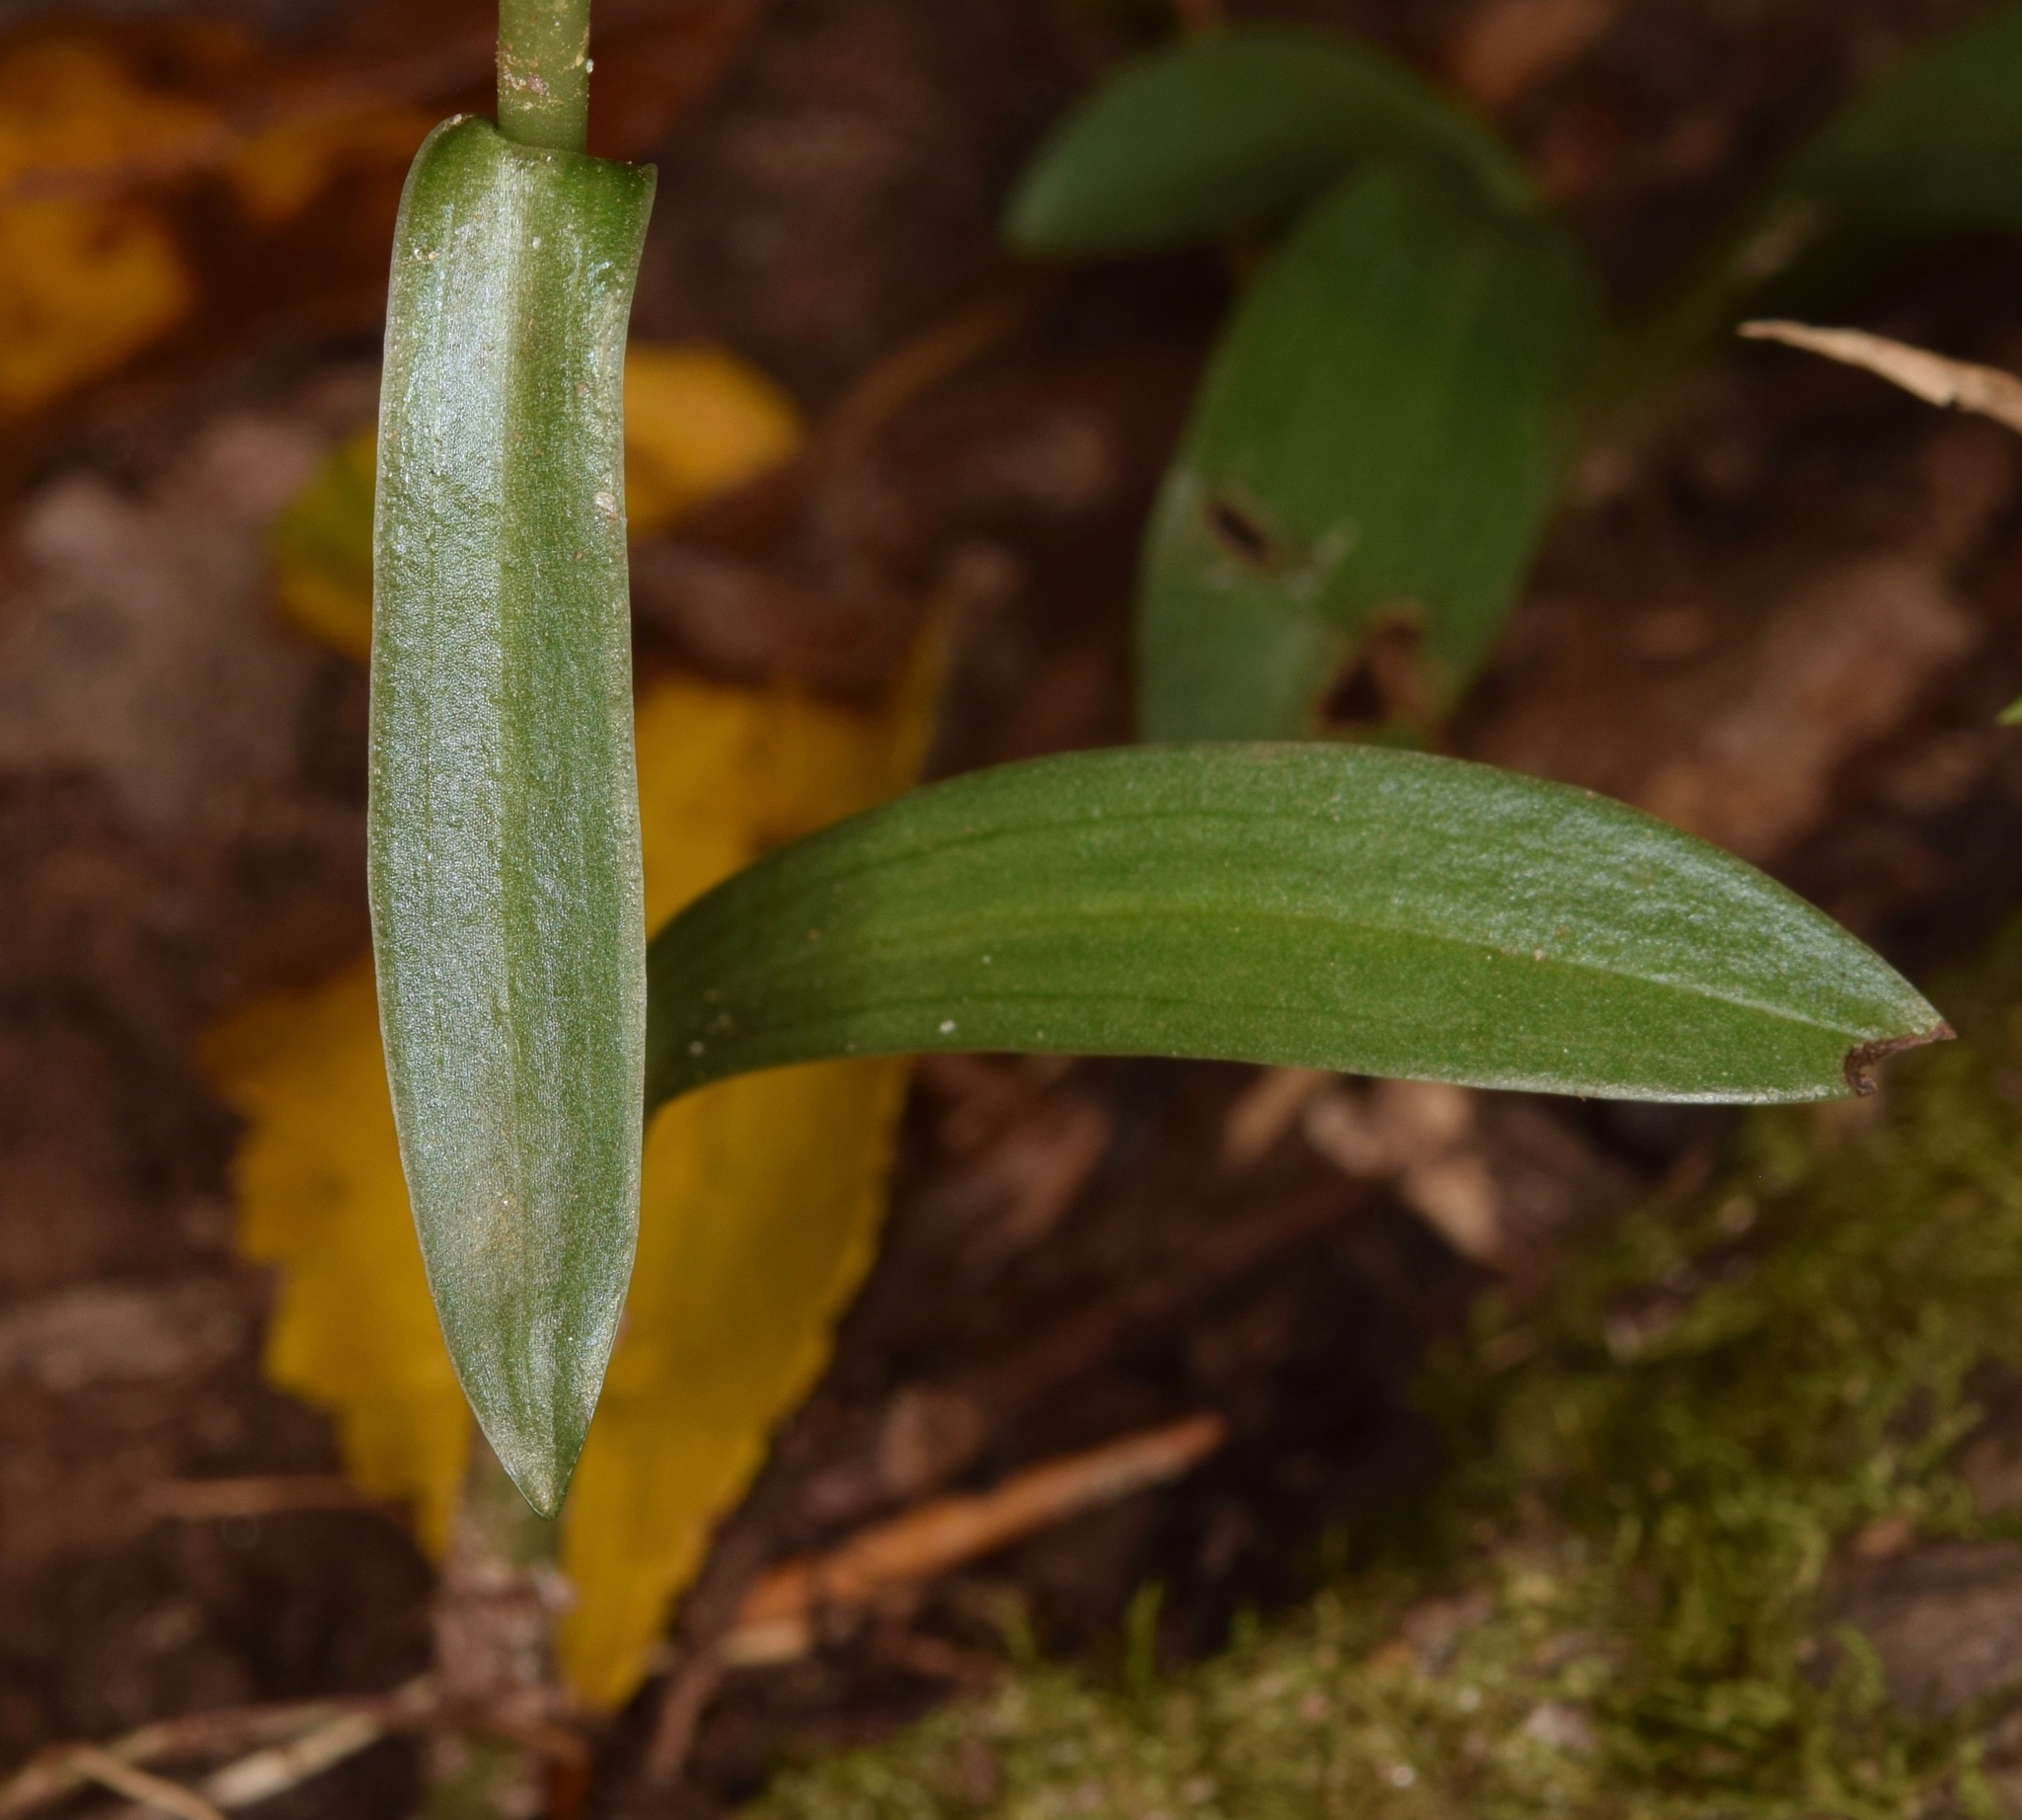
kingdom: Plantae
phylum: Tracheophyta
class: Liliopsida
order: Asparagales
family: Orchidaceae
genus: Spiranthes
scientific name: Spiranthes ovalis
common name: October ladies'-tresses
